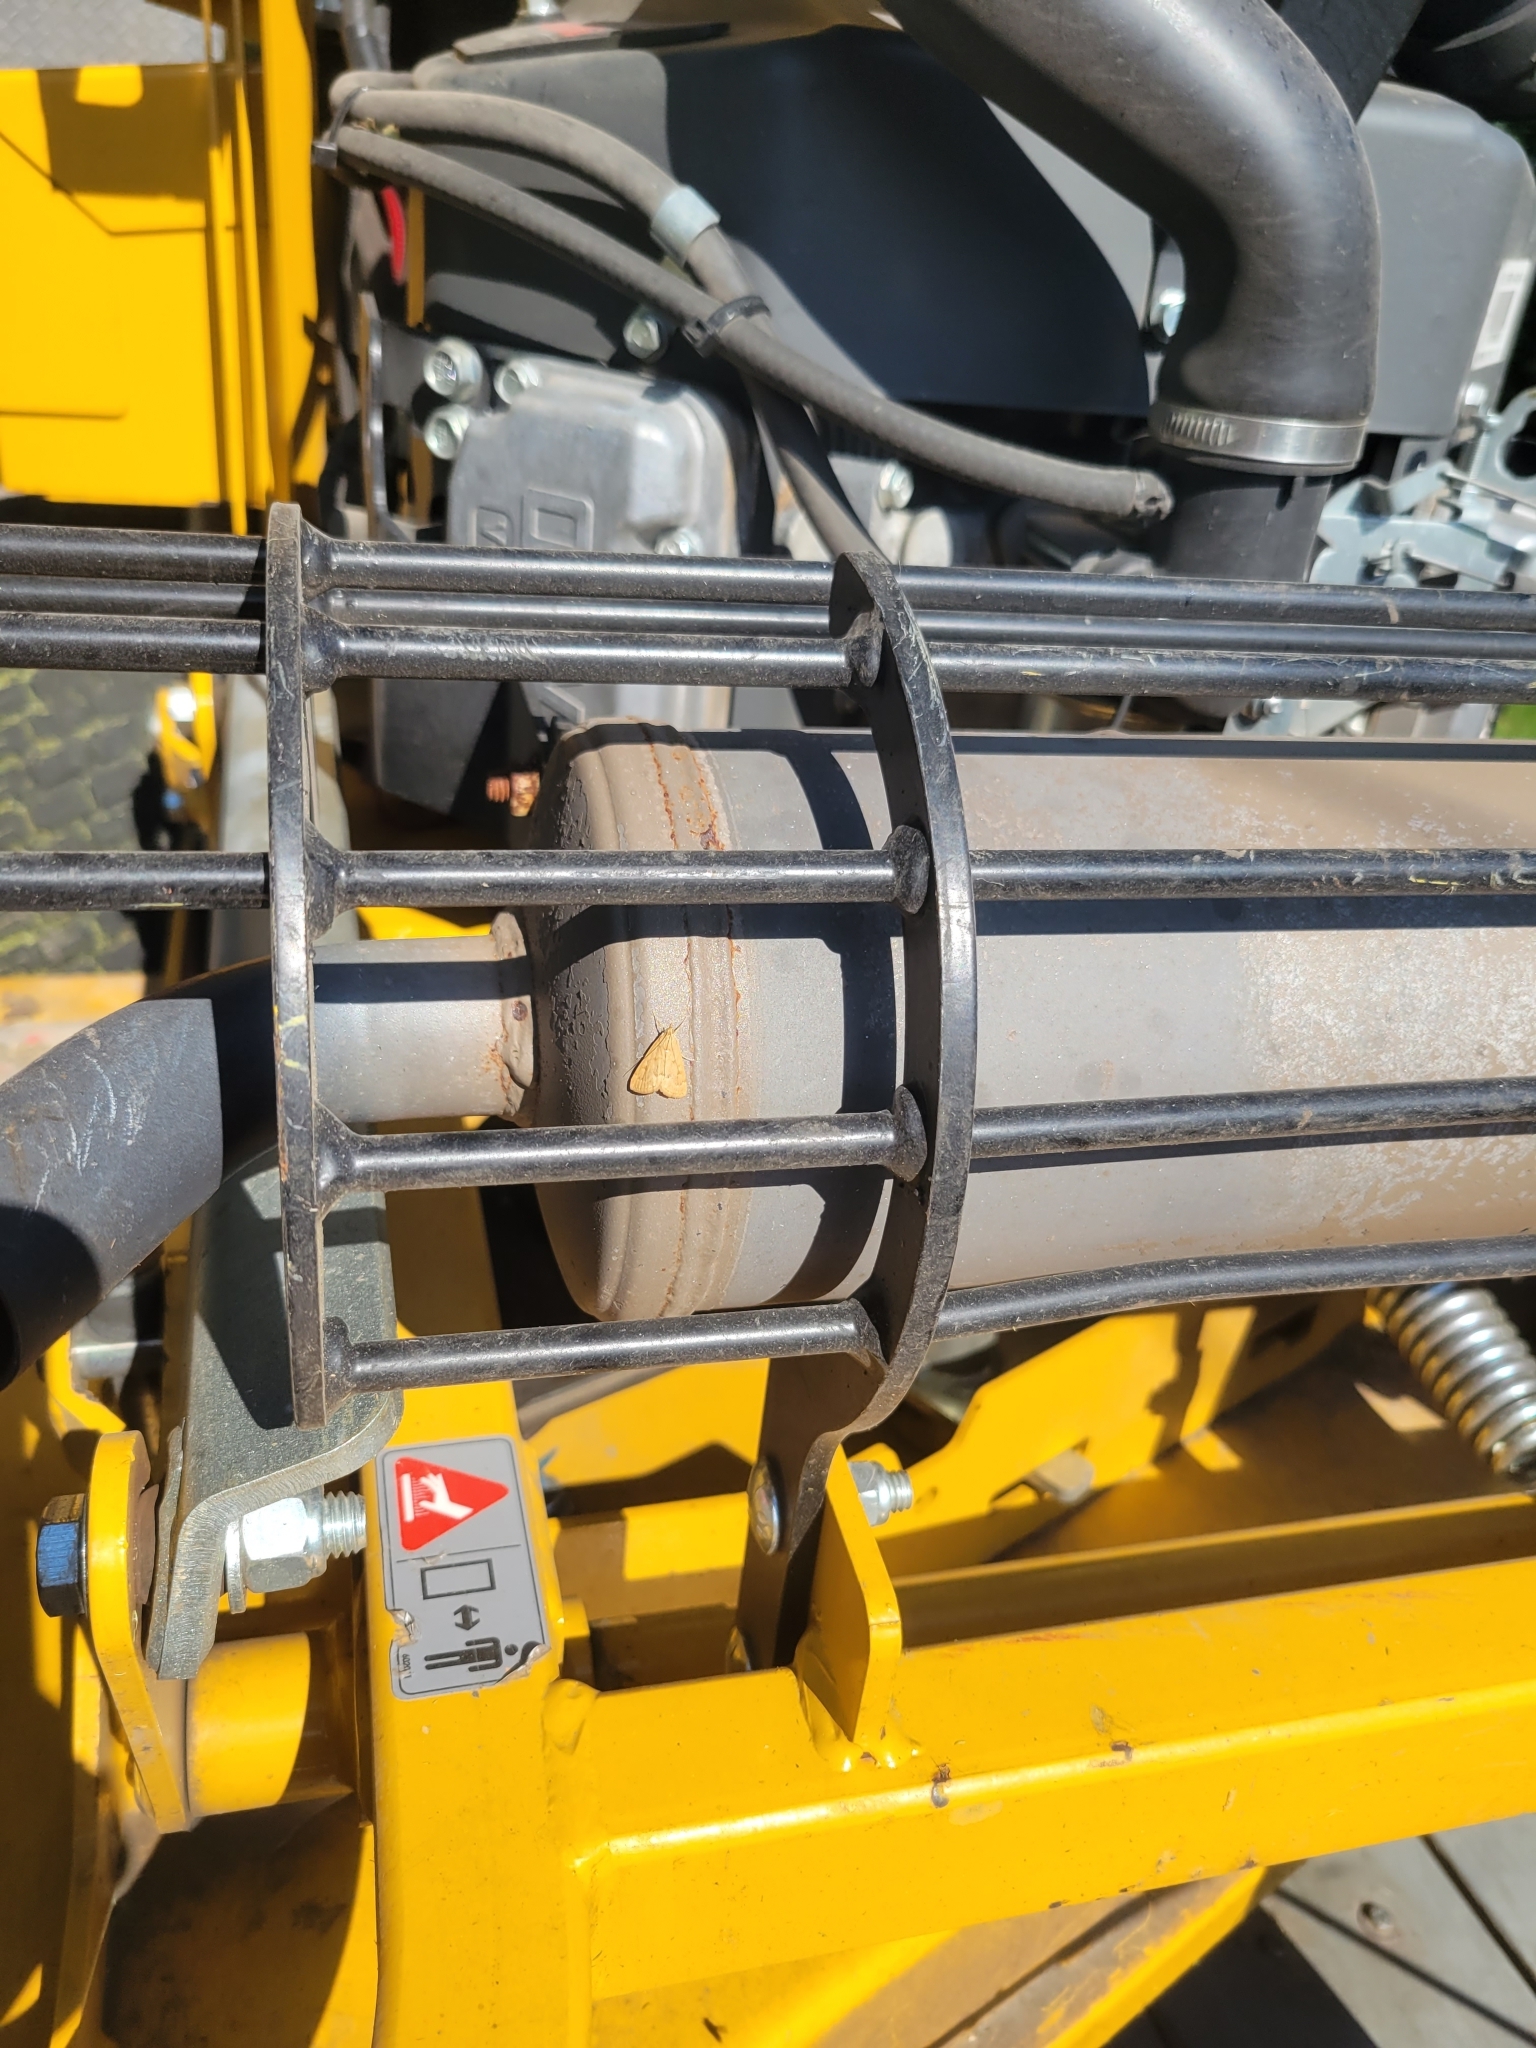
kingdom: Animalia
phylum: Arthropoda
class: Insecta
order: Lepidoptera
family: Crambidae
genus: Achyra
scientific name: Achyra rantalis
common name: Garden webworm
